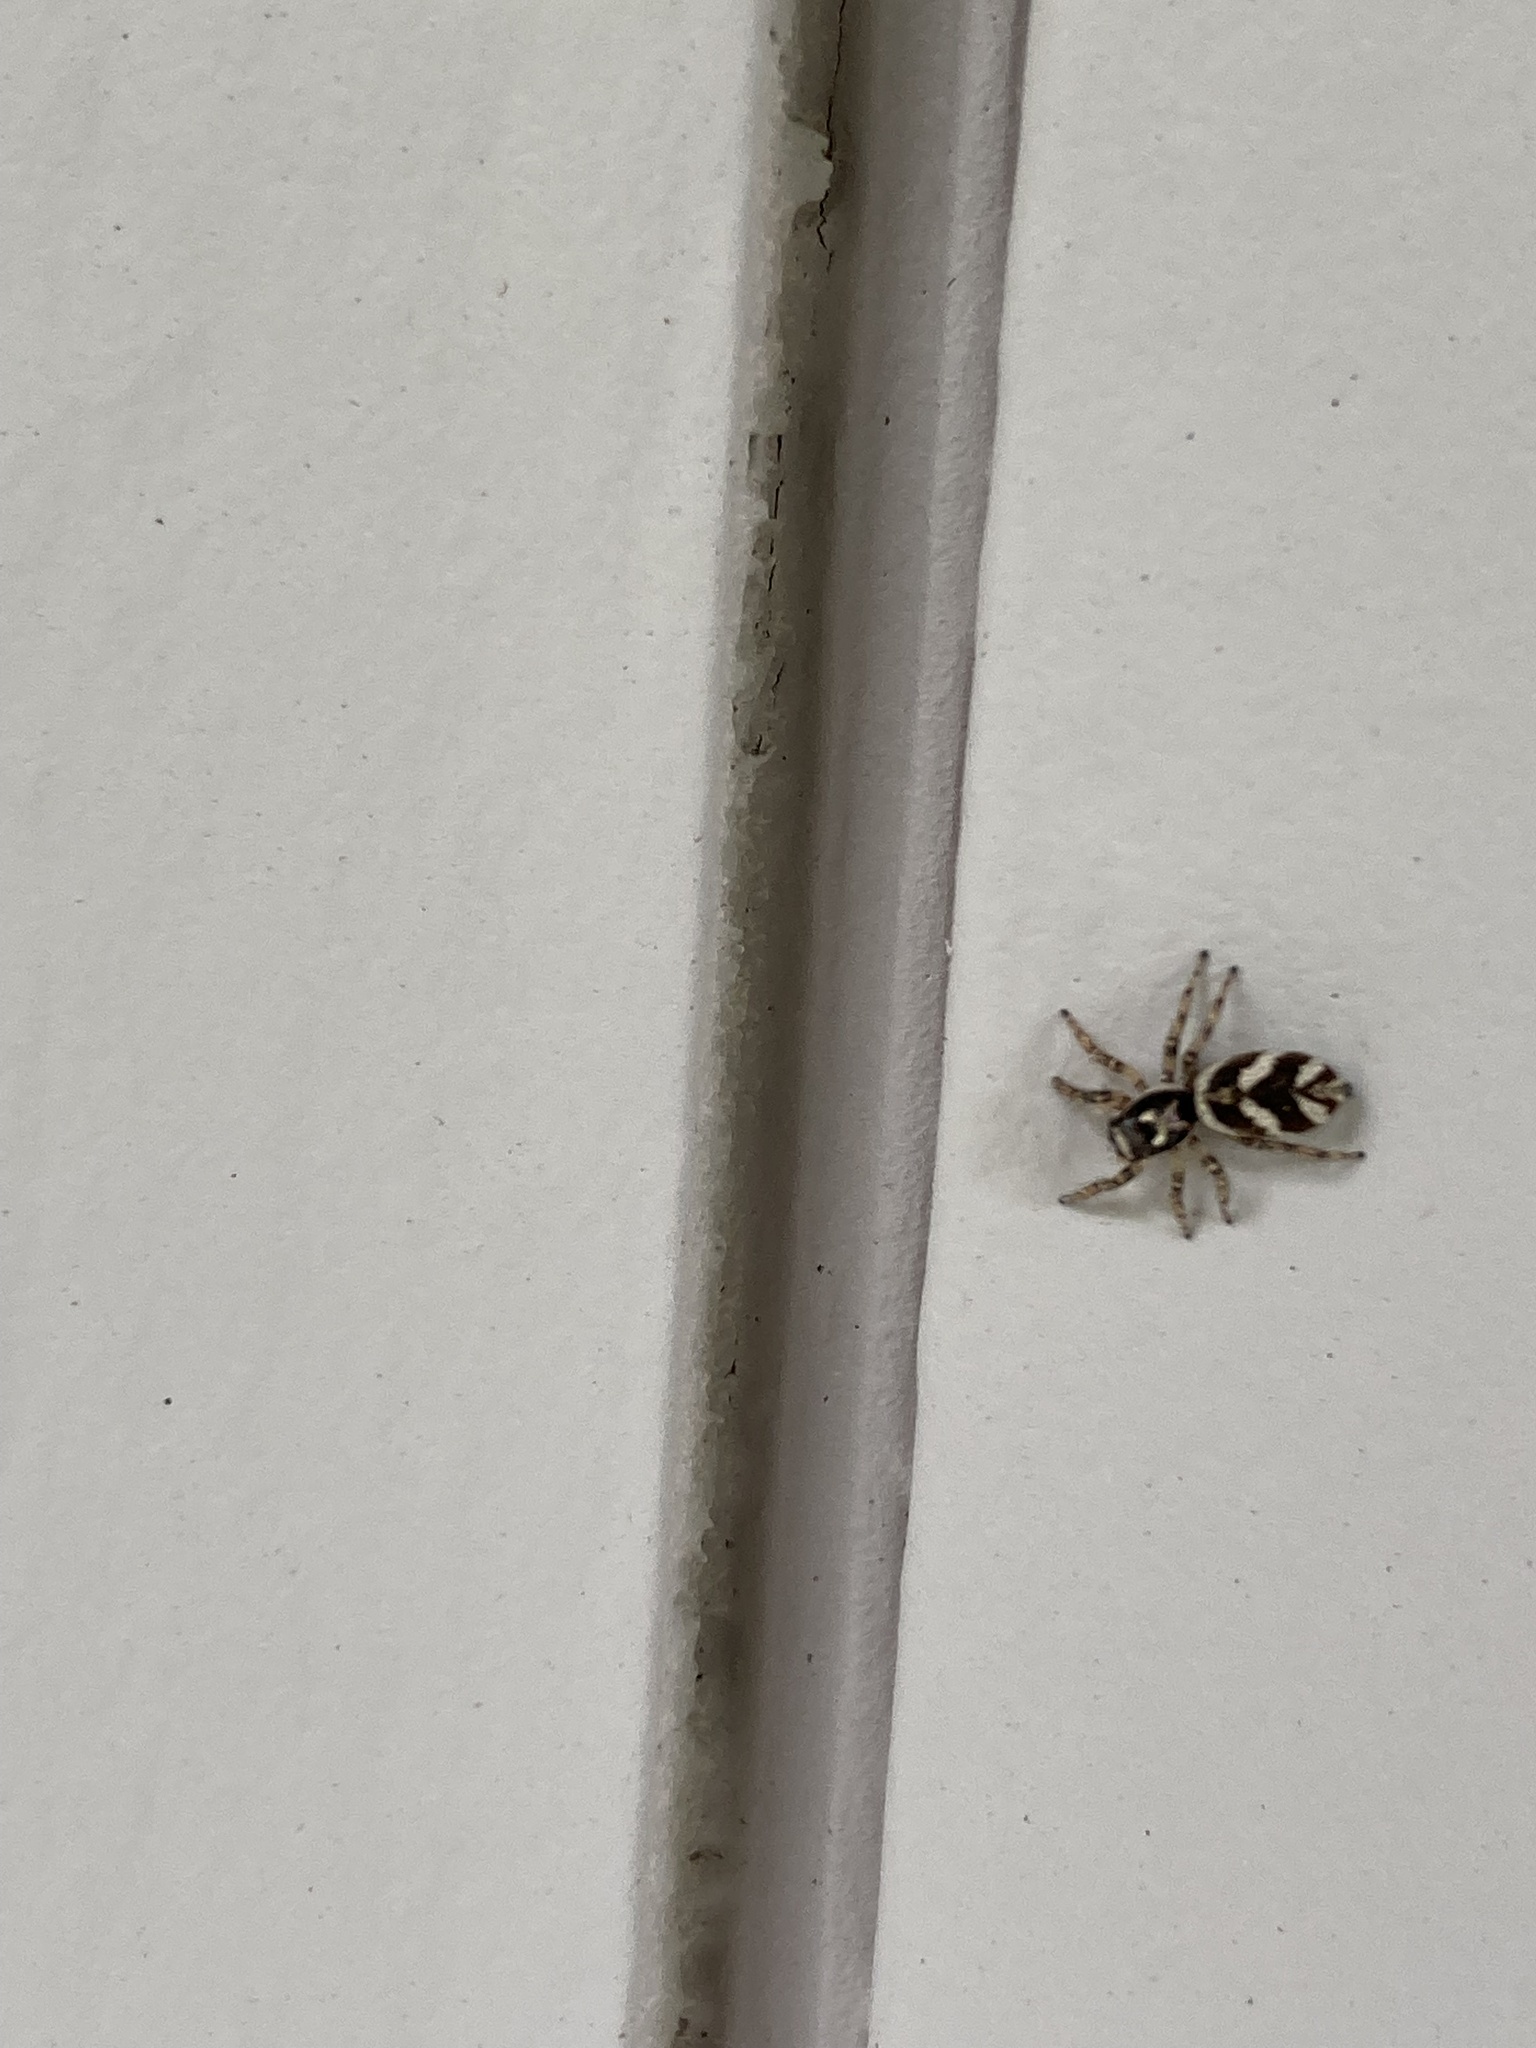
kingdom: Animalia
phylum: Arthropoda
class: Arachnida
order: Araneae
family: Salticidae
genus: Salticus
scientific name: Salticus scenicus
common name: Zebra jumper
